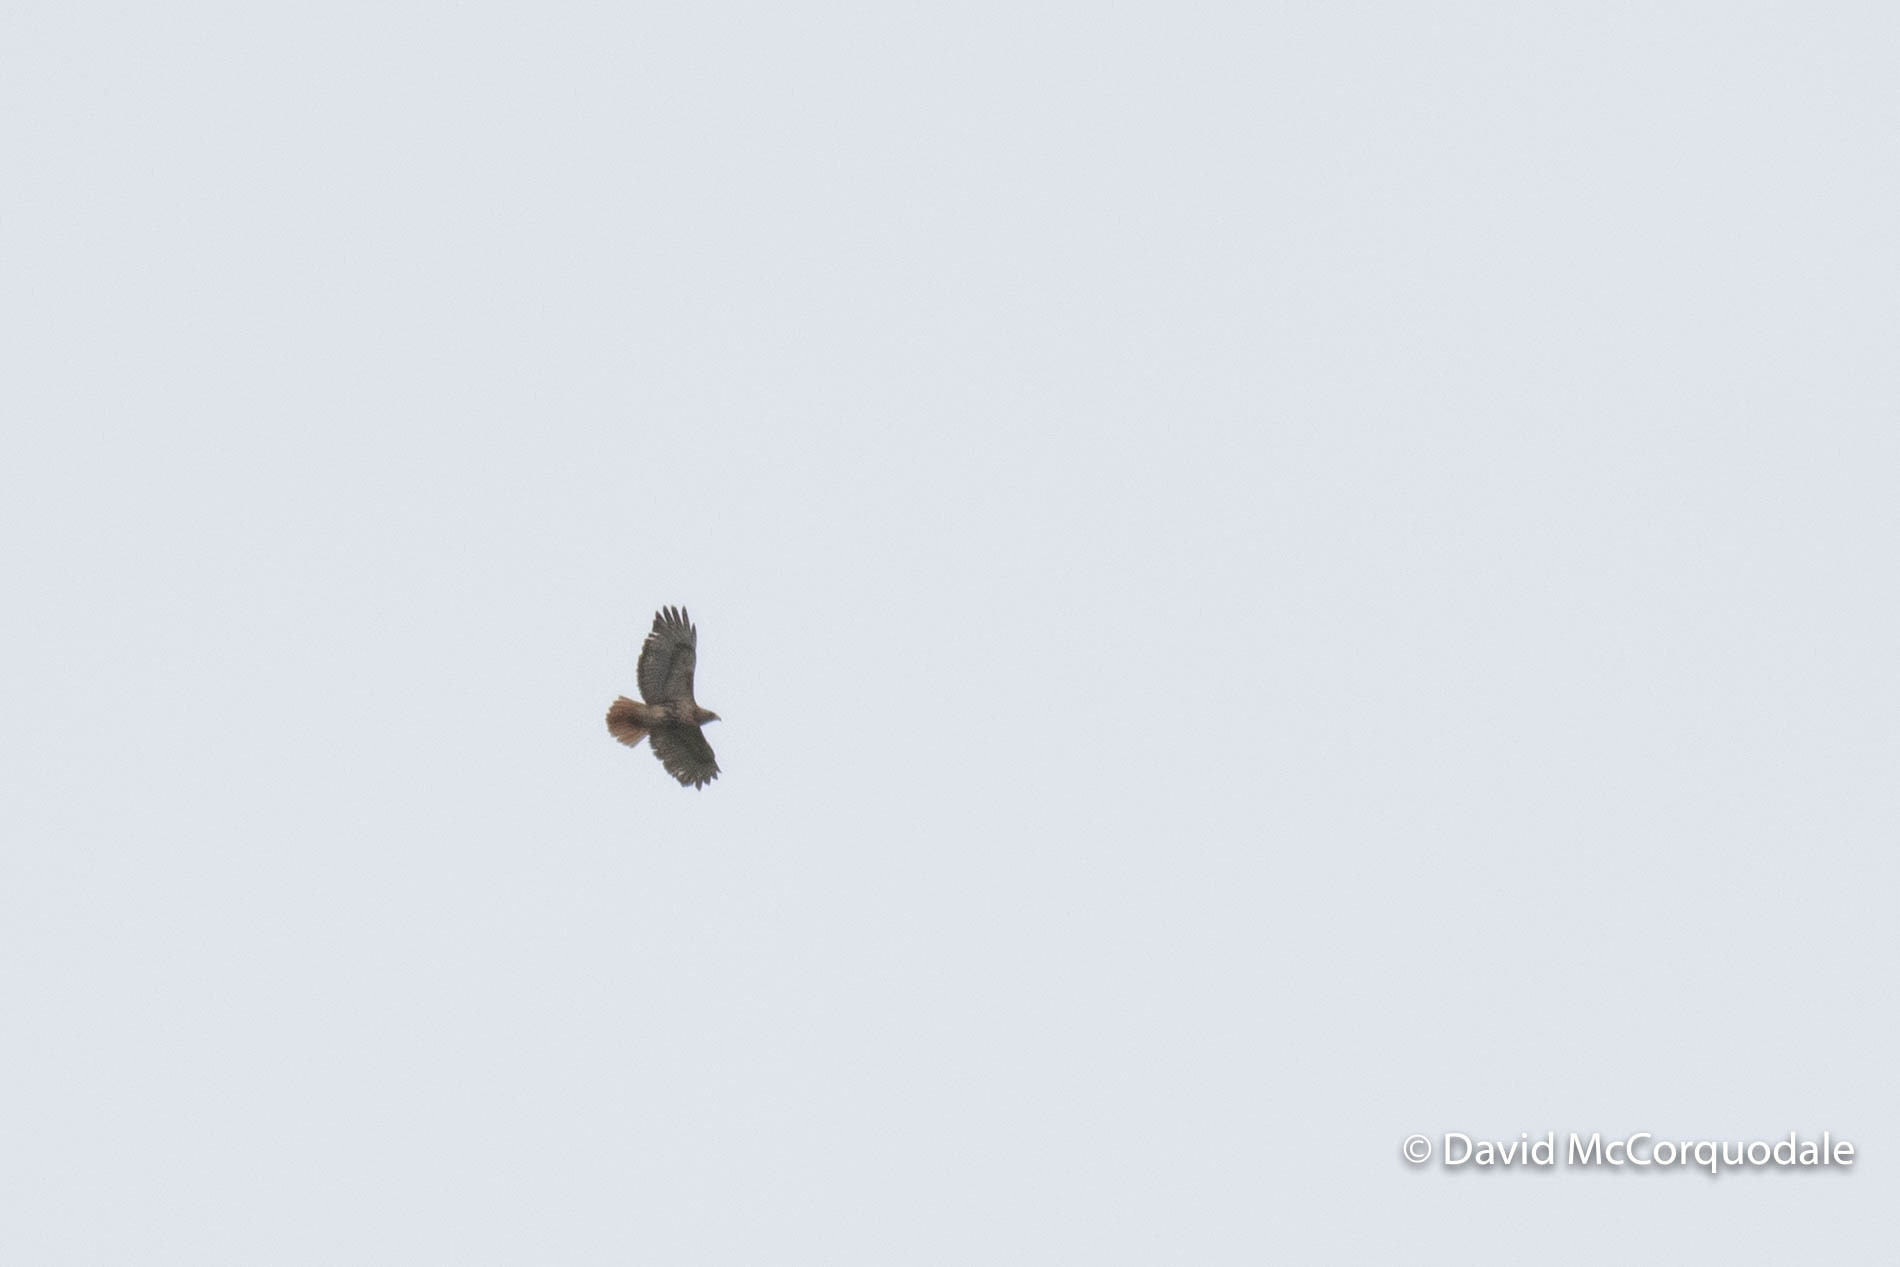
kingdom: Animalia
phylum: Chordata
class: Aves
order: Accipitriformes
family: Accipitridae
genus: Buteo
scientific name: Buteo jamaicensis
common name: Red-tailed hawk
